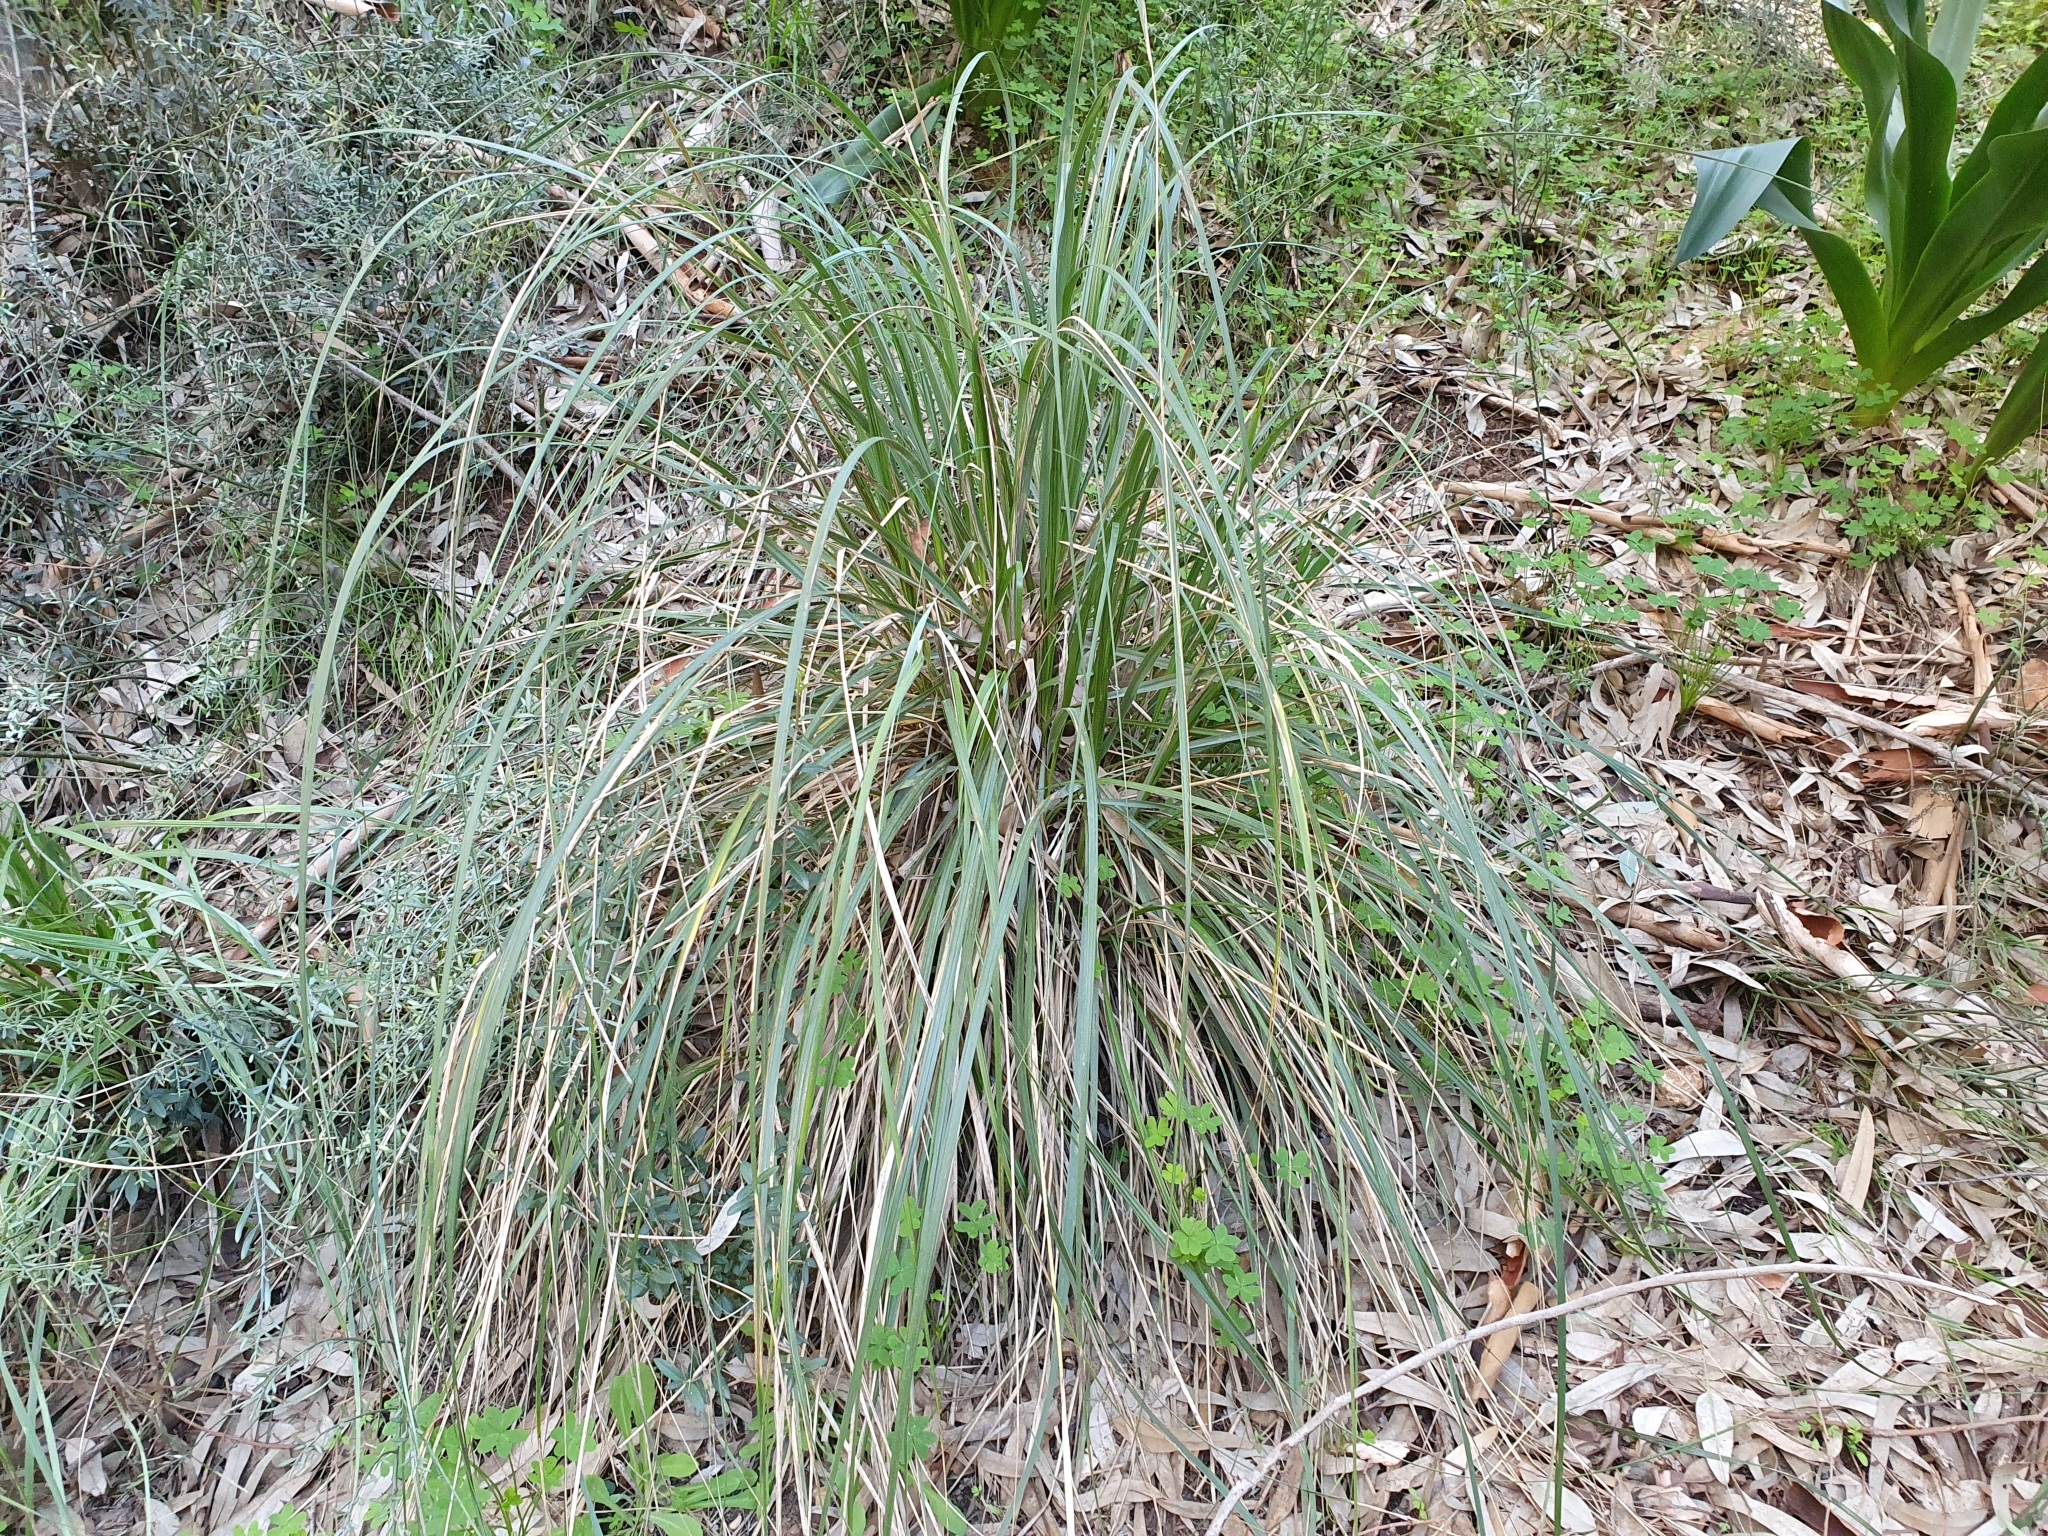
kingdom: Plantae
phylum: Tracheophyta
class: Liliopsida
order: Poales
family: Poaceae
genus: Ampelodesmos
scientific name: Ampelodesmos mauritanicus
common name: Mauritanian grass
